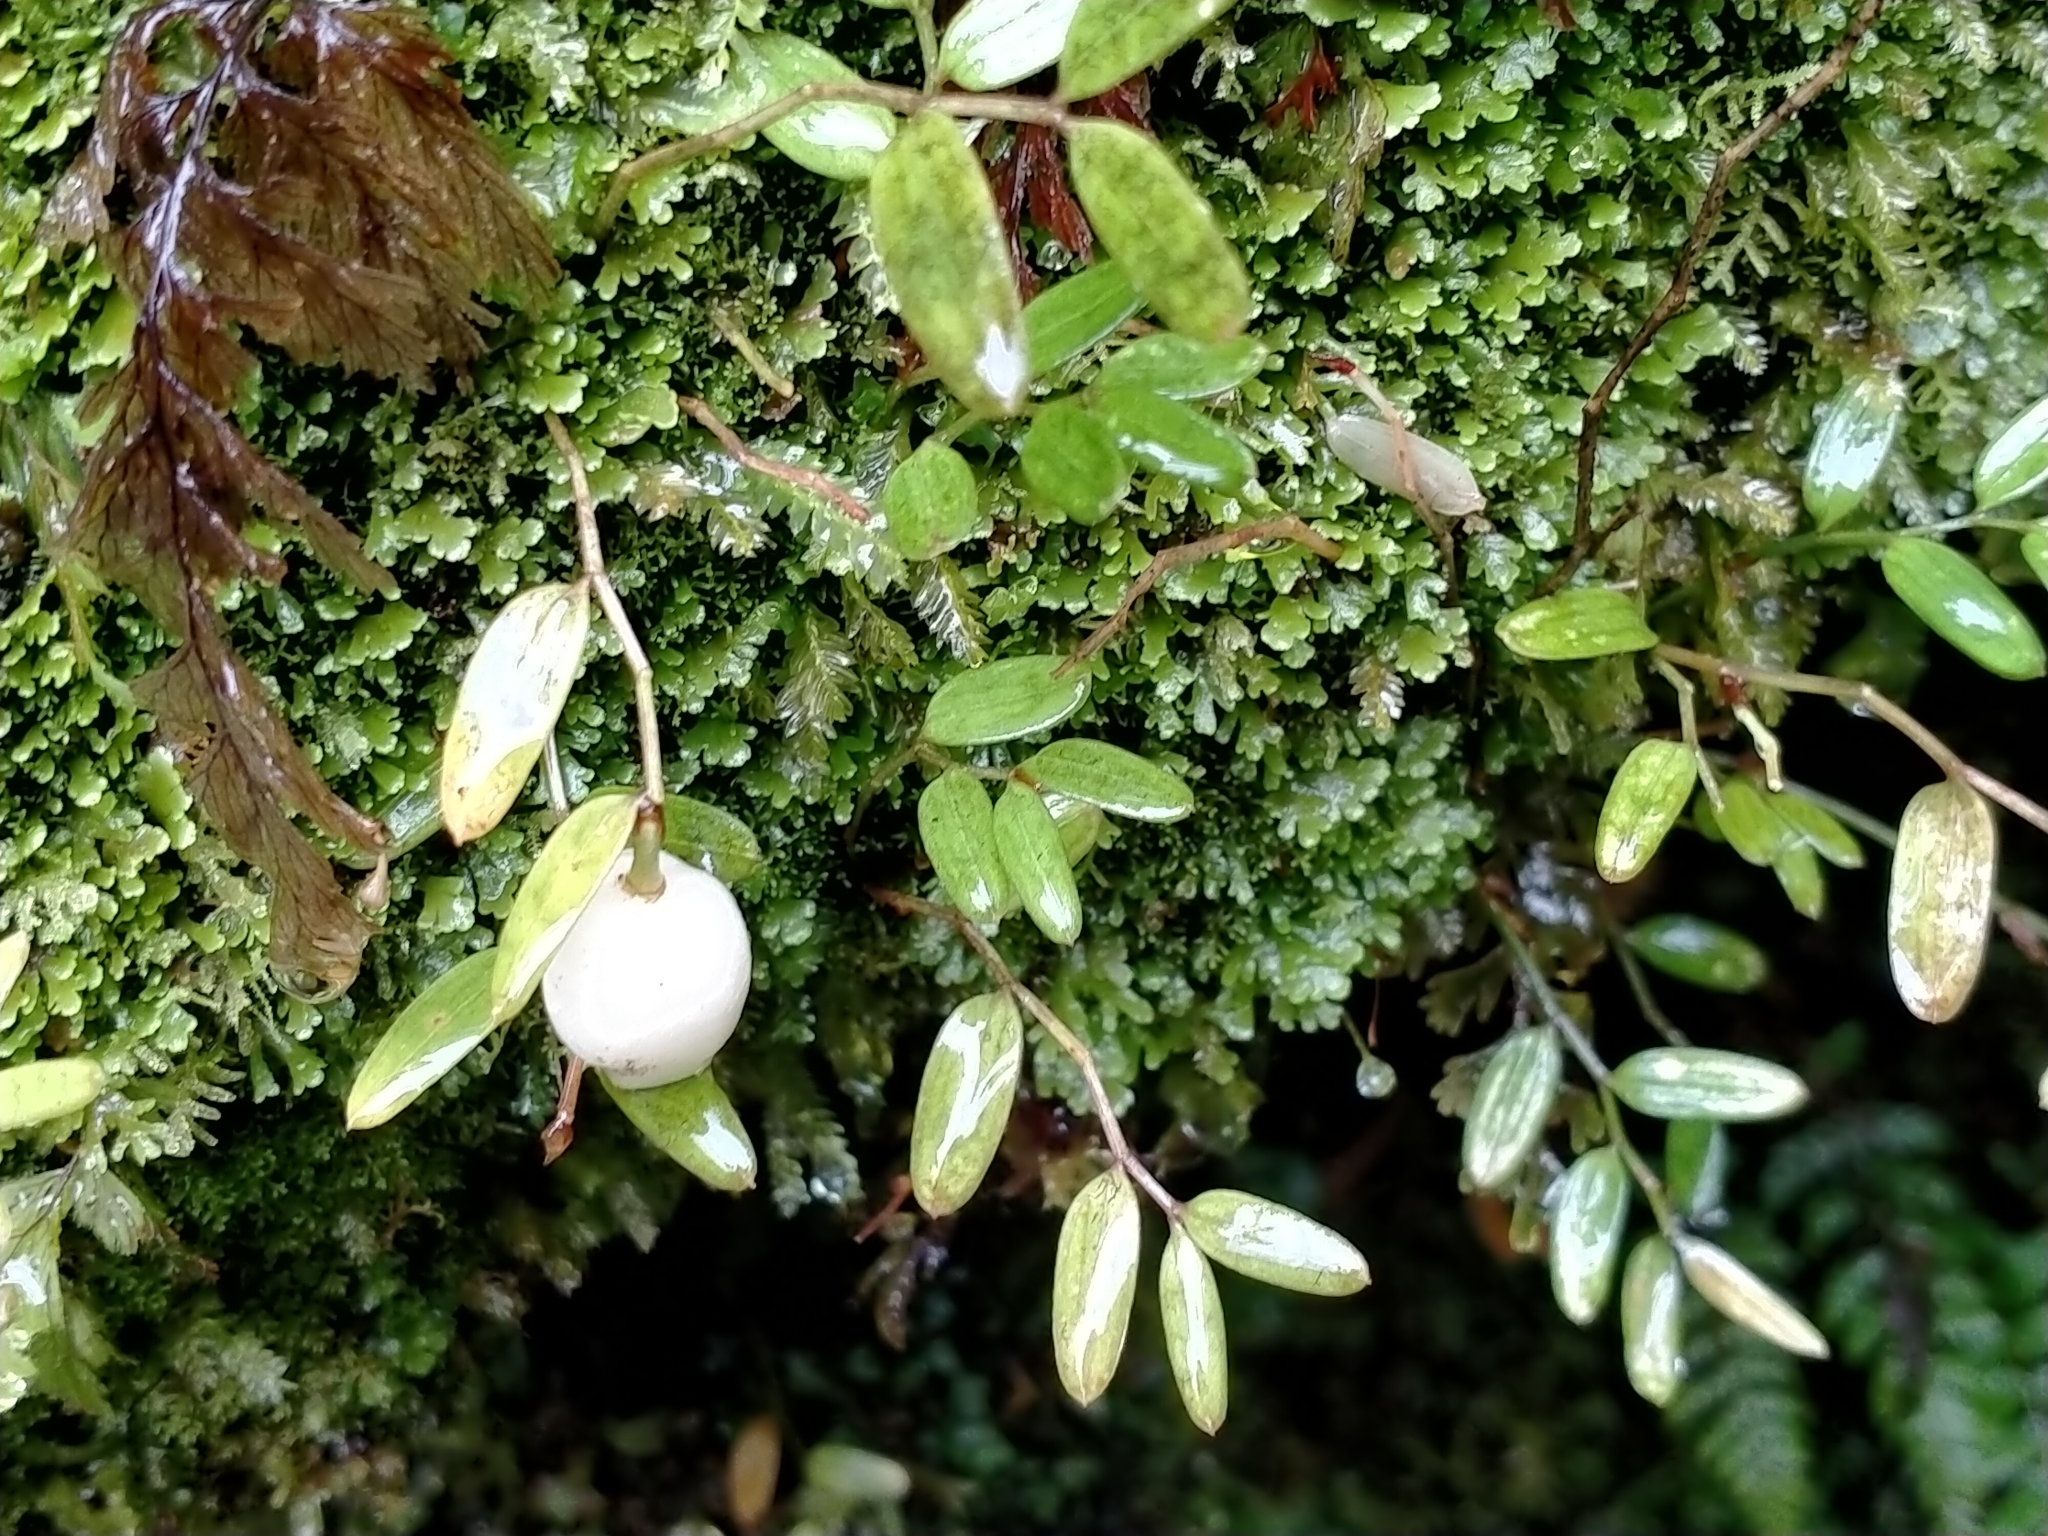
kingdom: Plantae
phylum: Tracheophyta
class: Liliopsida
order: Liliales
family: Alstroemeriaceae
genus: Luzuriaga
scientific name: Luzuriaga parviflora
